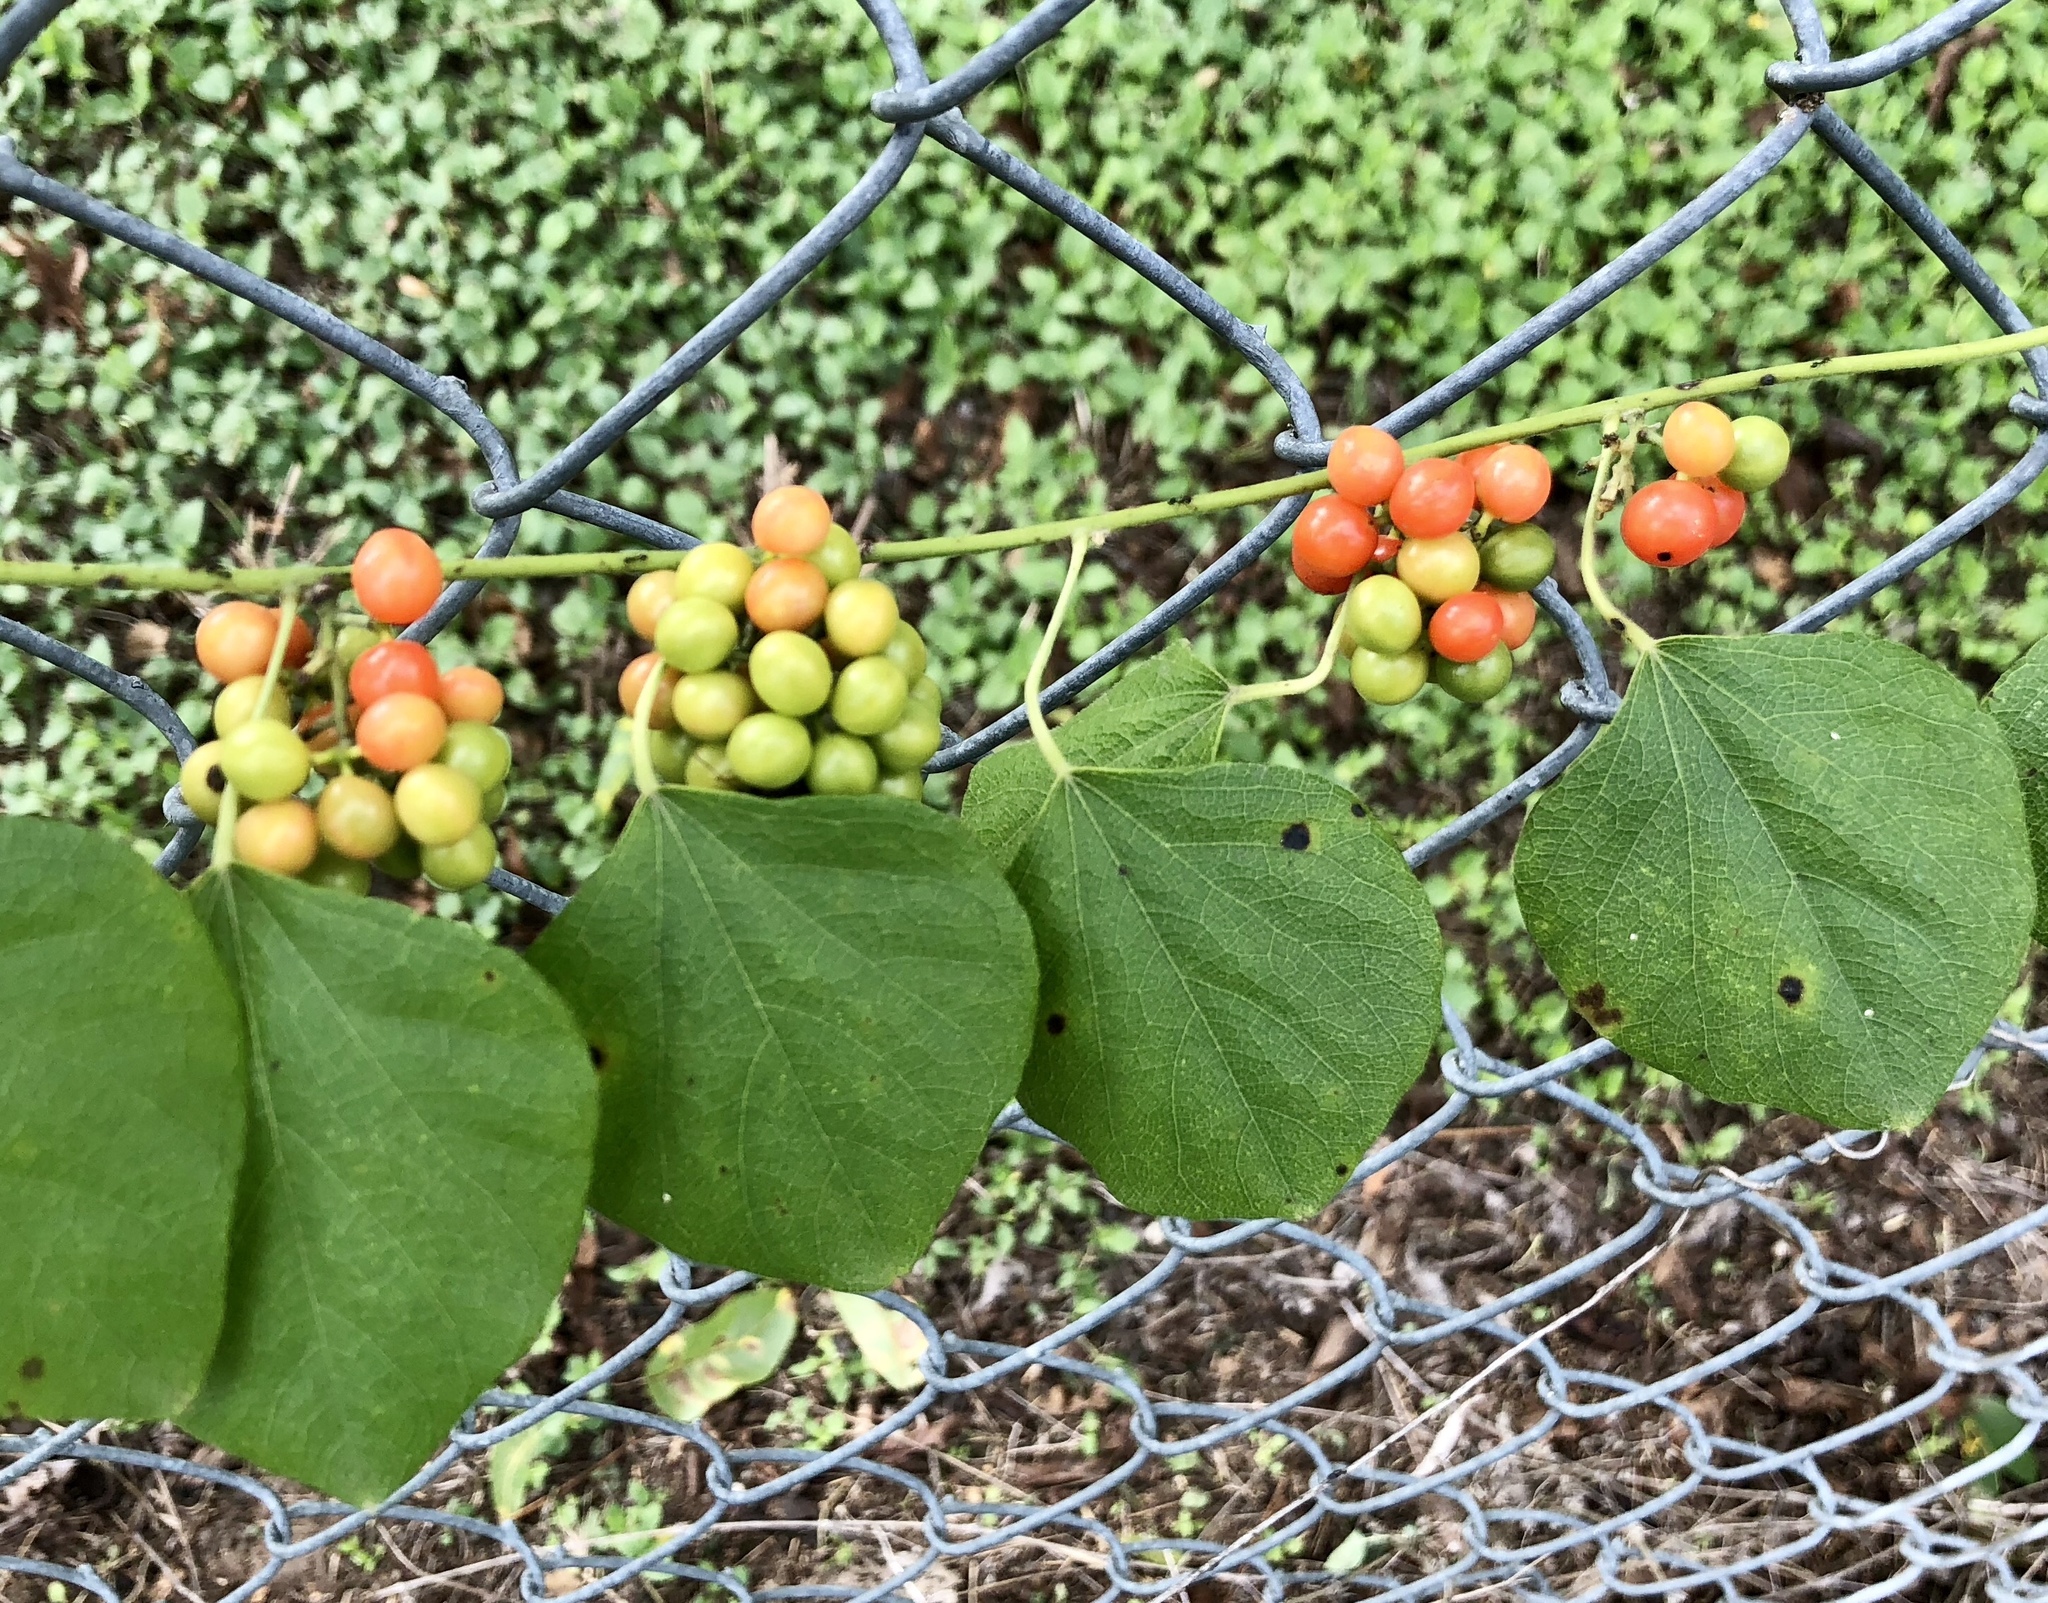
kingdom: Plantae
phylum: Tracheophyta
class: Magnoliopsida
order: Ranunculales
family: Menispermaceae
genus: Cocculus
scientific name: Cocculus carolinus
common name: Carolina moonseed
